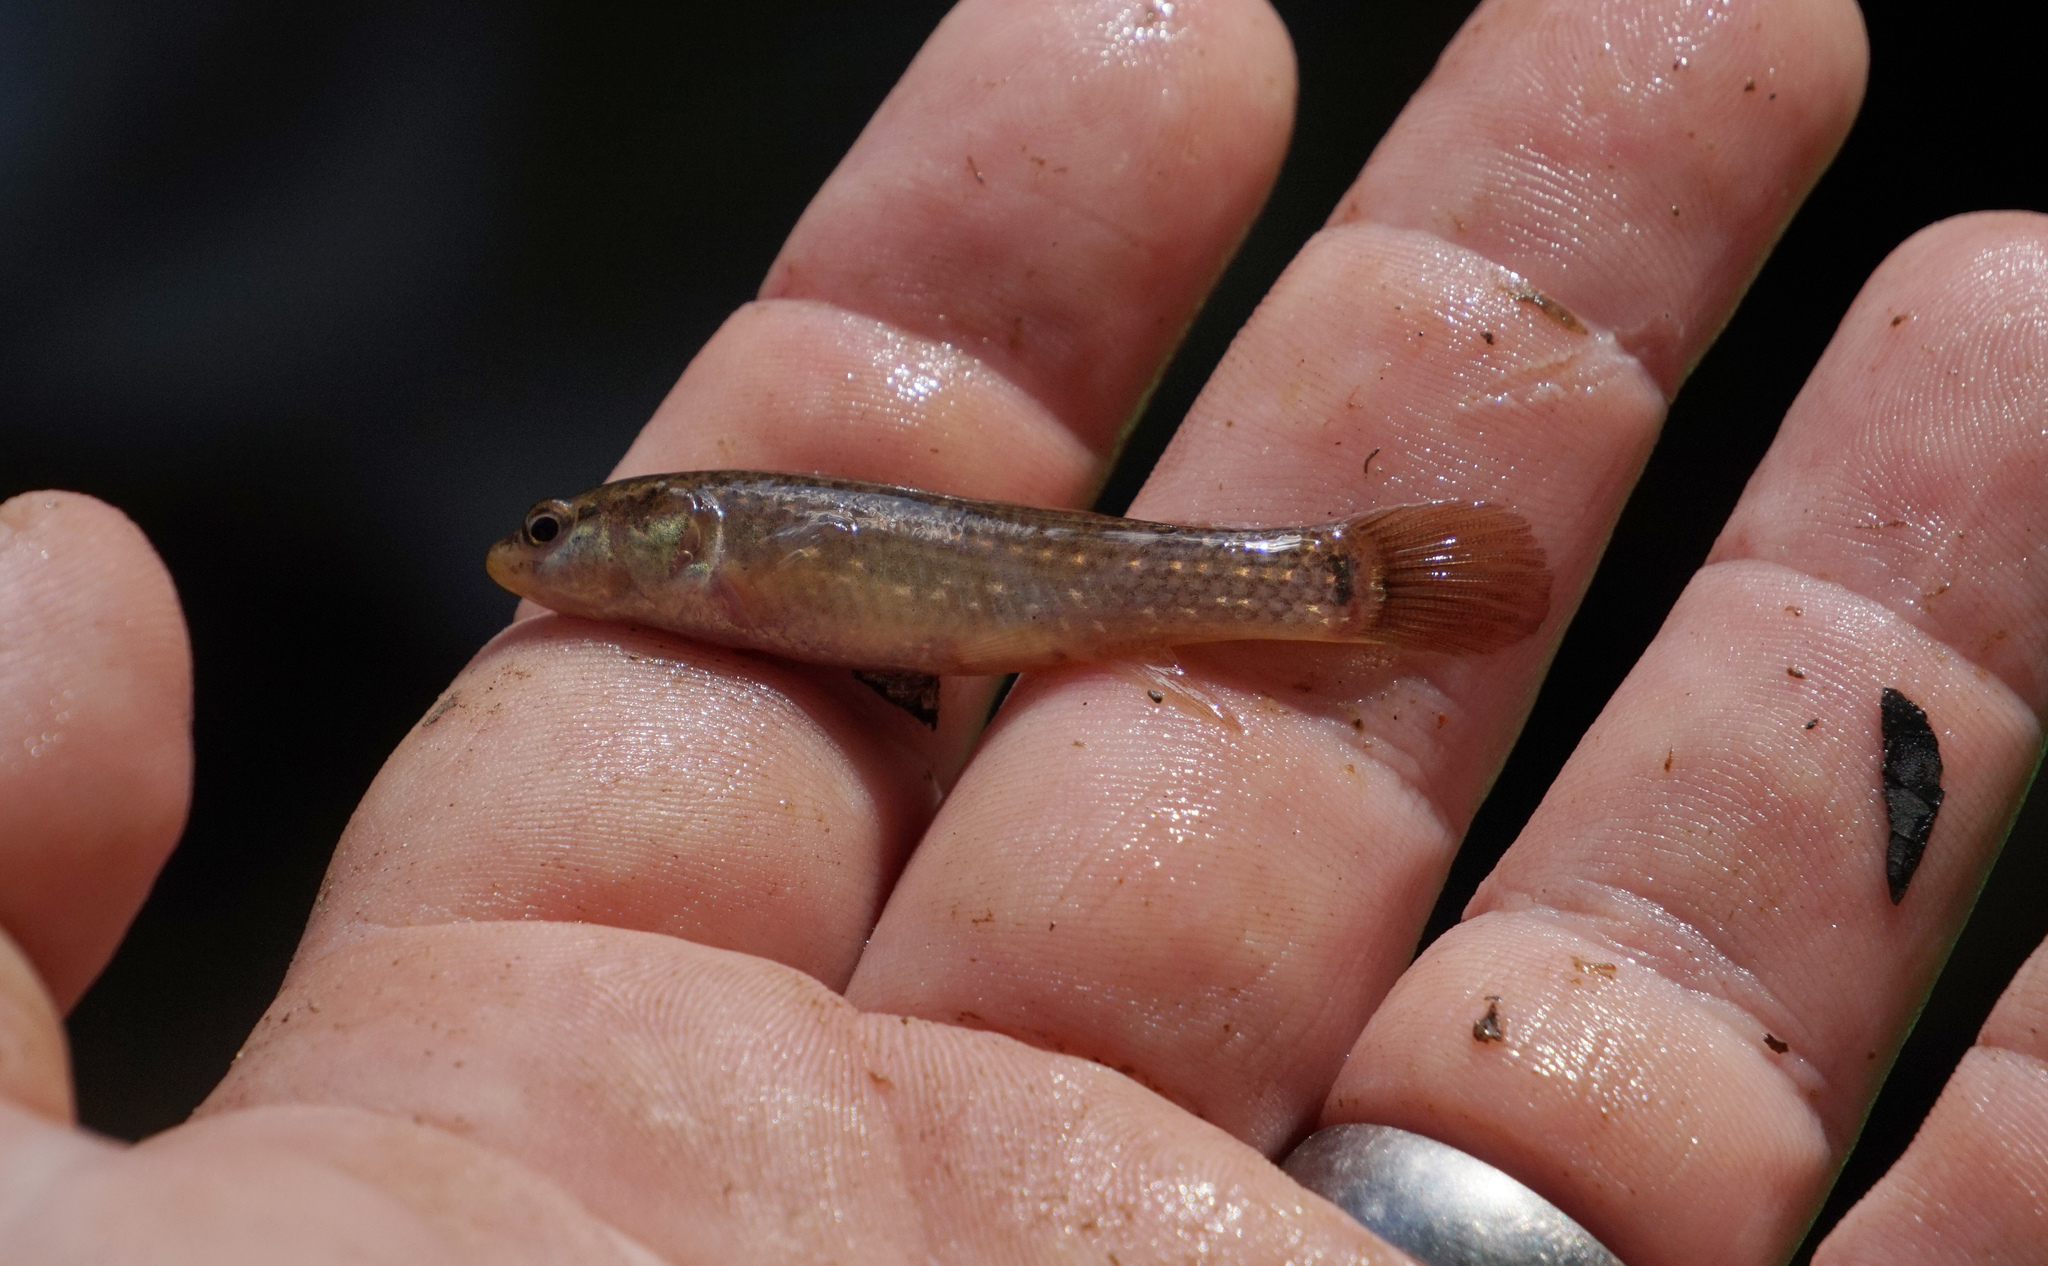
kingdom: Animalia
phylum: Chordata
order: Esociformes
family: Umbridae
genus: Umbra
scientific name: Umbra pygmaea
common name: Eastern mudminnow
